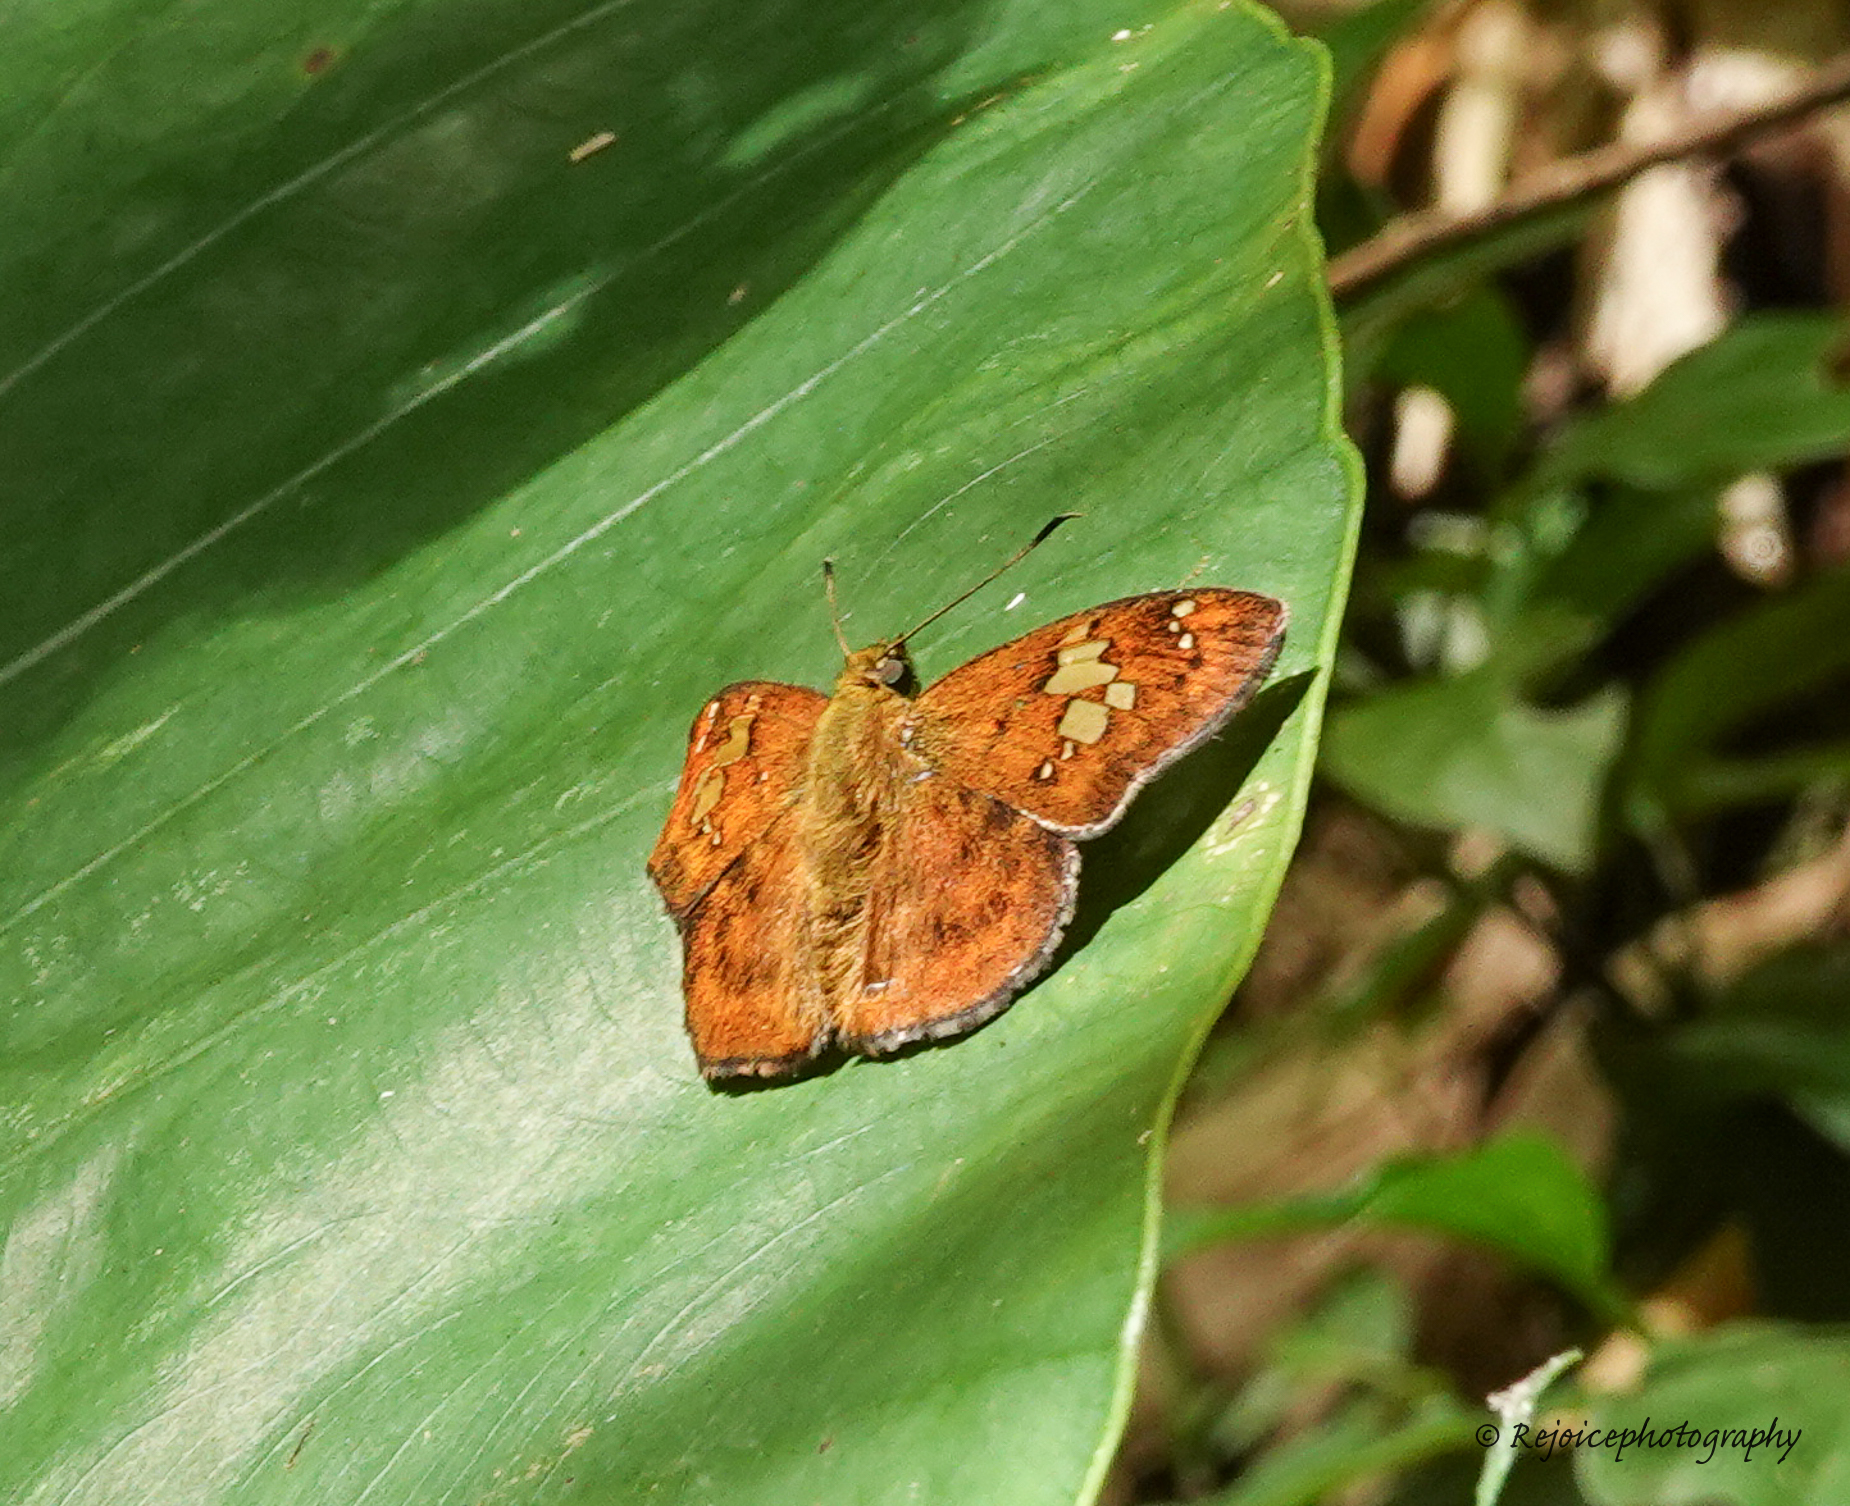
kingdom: Animalia
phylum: Arthropoda
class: Insecta
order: Lepidoptera
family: Hesperiidae
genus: Pseudocoladenia
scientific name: Pseudocoladenia dan
